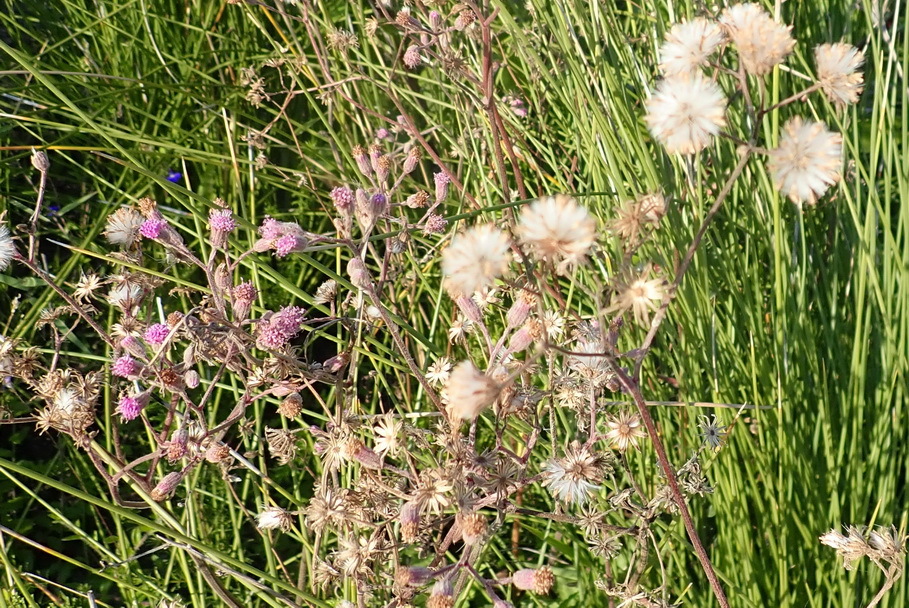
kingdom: Plantae
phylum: Tracheophyta
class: Magnoliopsida
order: Asterales
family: Asteraceae
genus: Senecio
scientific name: Senecio purpureus
